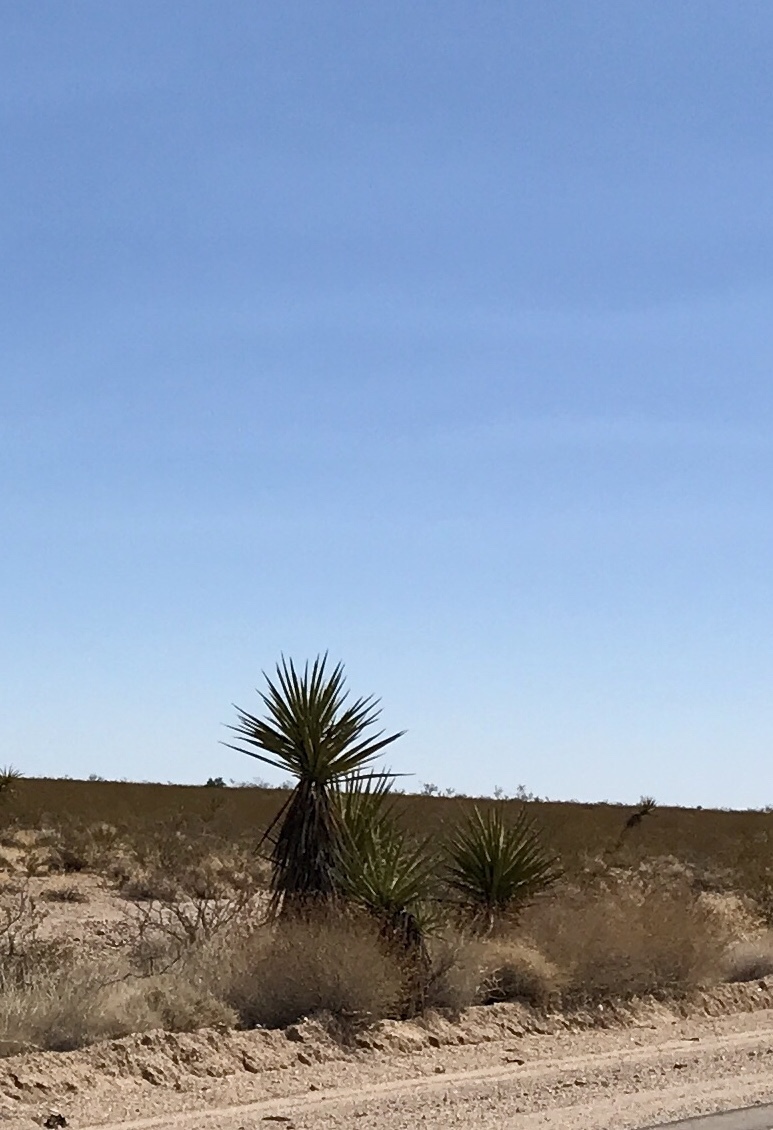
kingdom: Plantae
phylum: Tracheophyta
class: Liliopsida
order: Asparagales
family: Asparagaceae
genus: Yucca
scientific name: Yucca schidigera
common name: Mojave yucca
